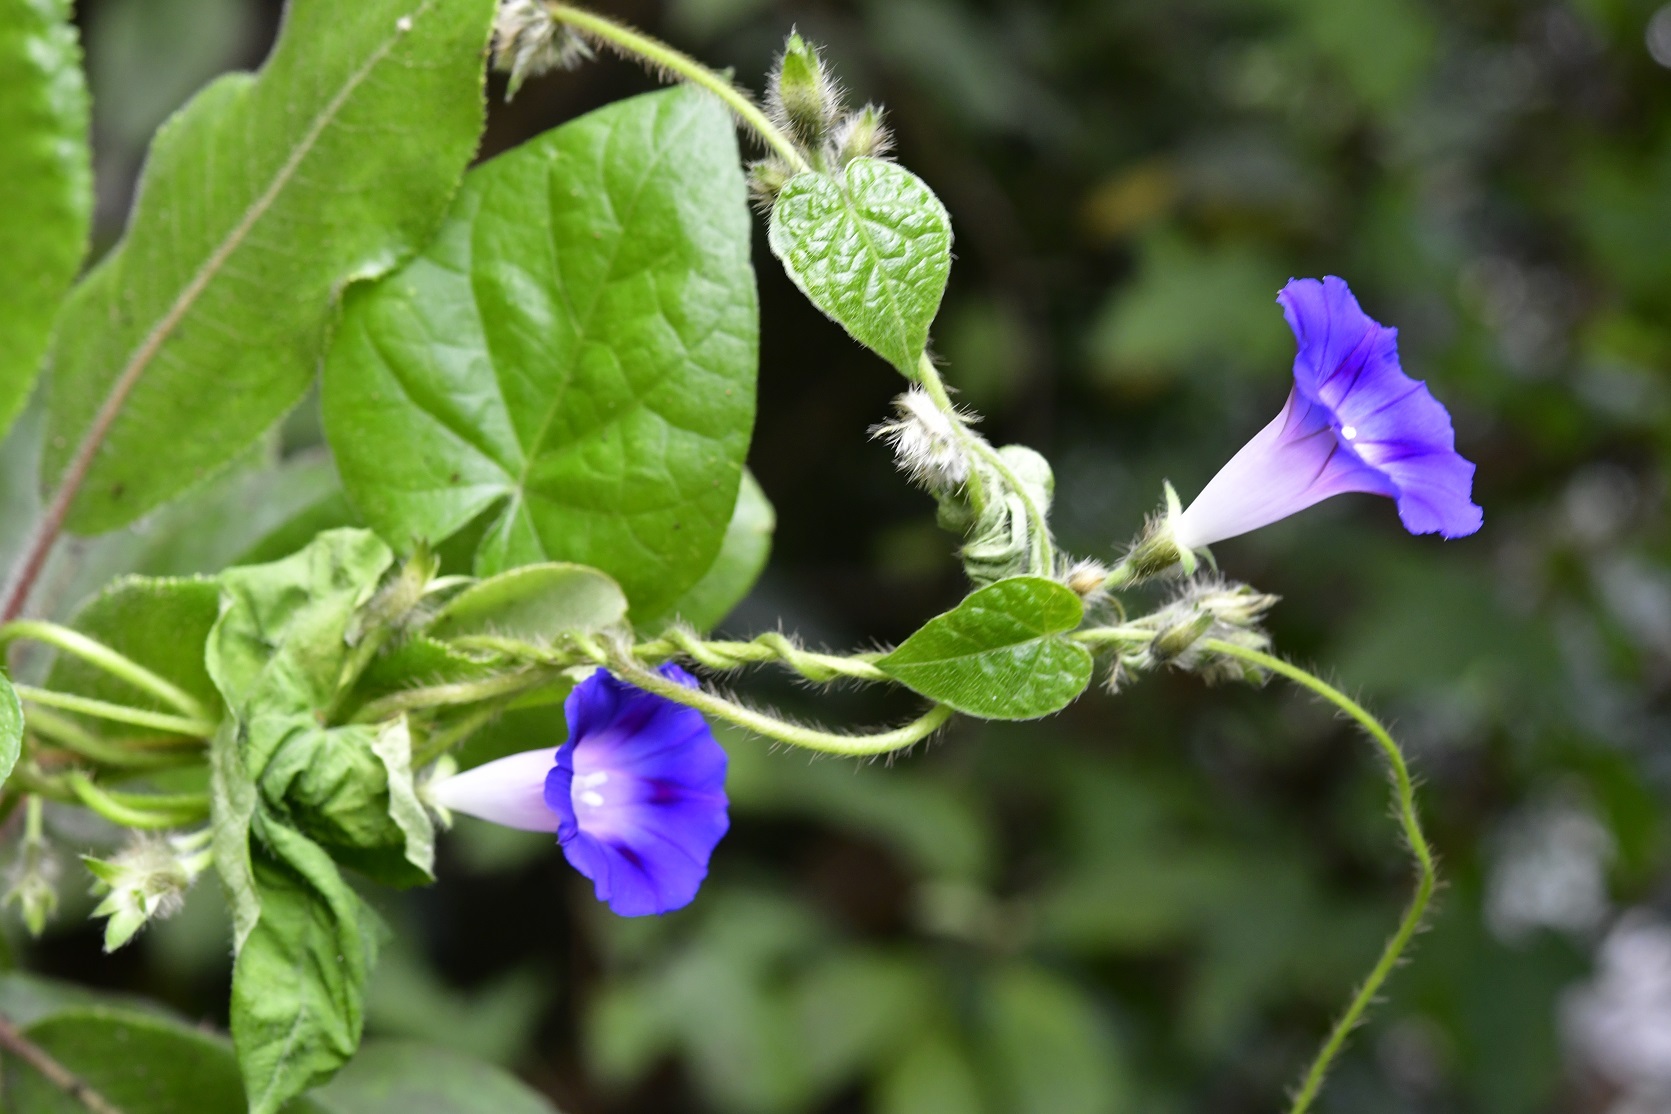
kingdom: Plantae
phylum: Tracheophyta
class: Magnoliopsida
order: Solanales
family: Convolvulaceae
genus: Ipomoea
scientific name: Ipomoea purpurea
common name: Common morning-glory
